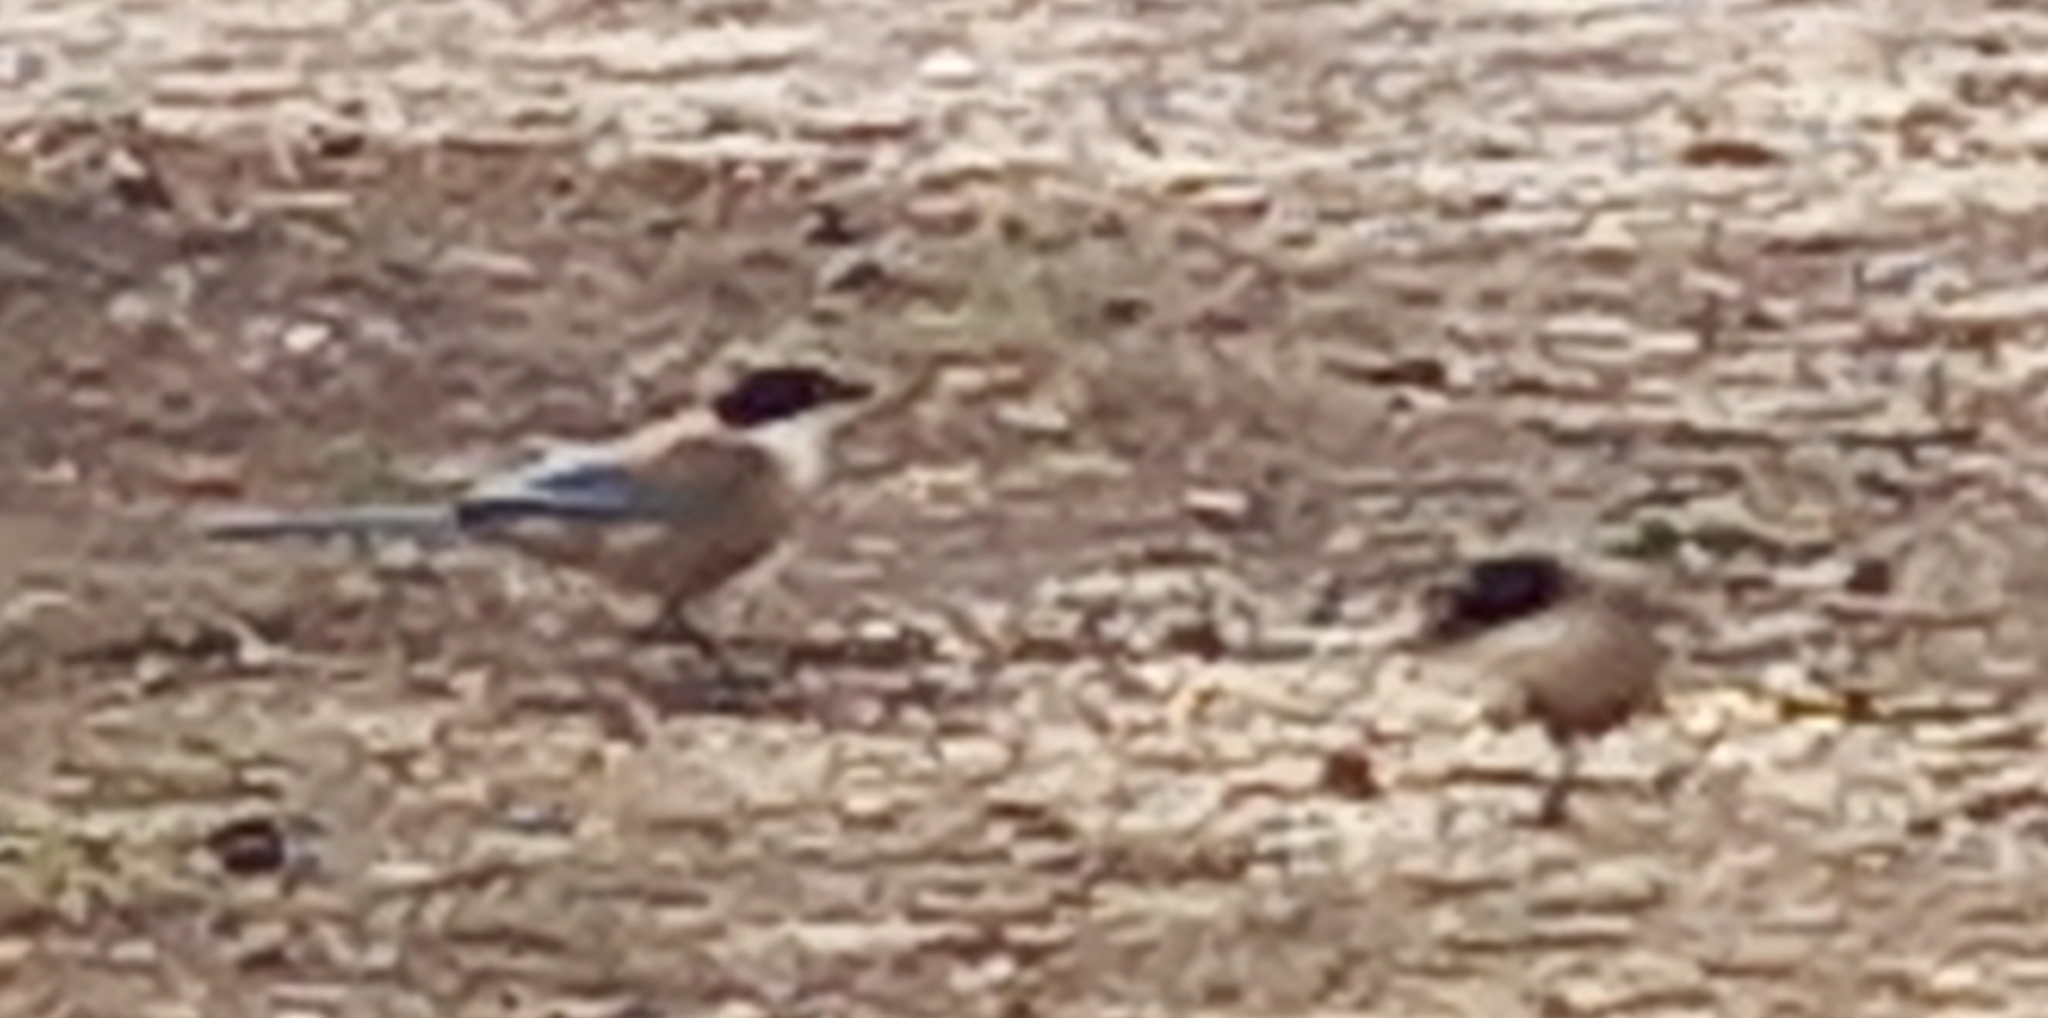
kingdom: Animalia
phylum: Chordata
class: Aves
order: Passeriformes
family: Corvidae
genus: Cyanopica
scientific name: Cyanopica cooki
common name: Iberian magpie
